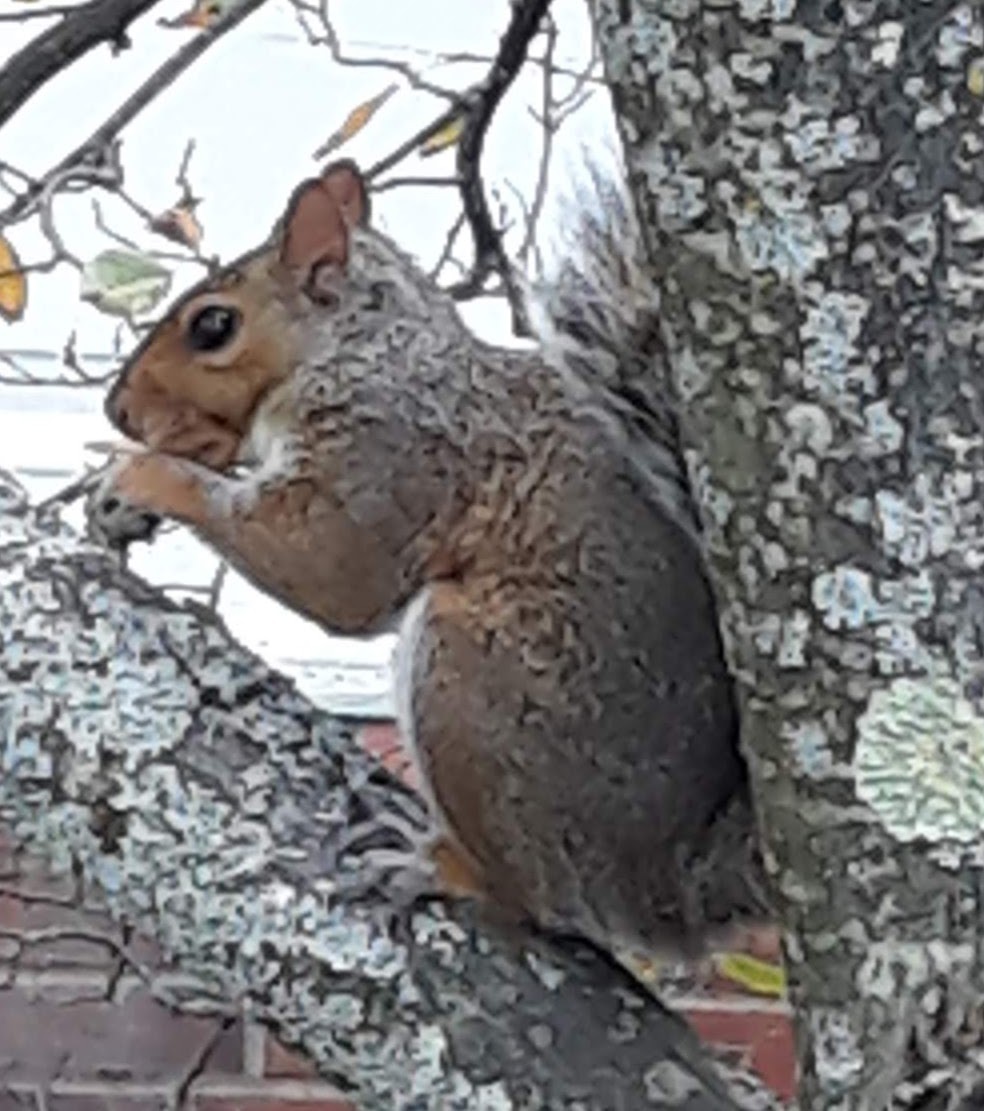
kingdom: Animalia
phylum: Chordata
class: Mammalia
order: Rodentia
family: Sciuridae
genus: Sciurus
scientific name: Sciurus carolinensis
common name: Eastern gray squirrel
